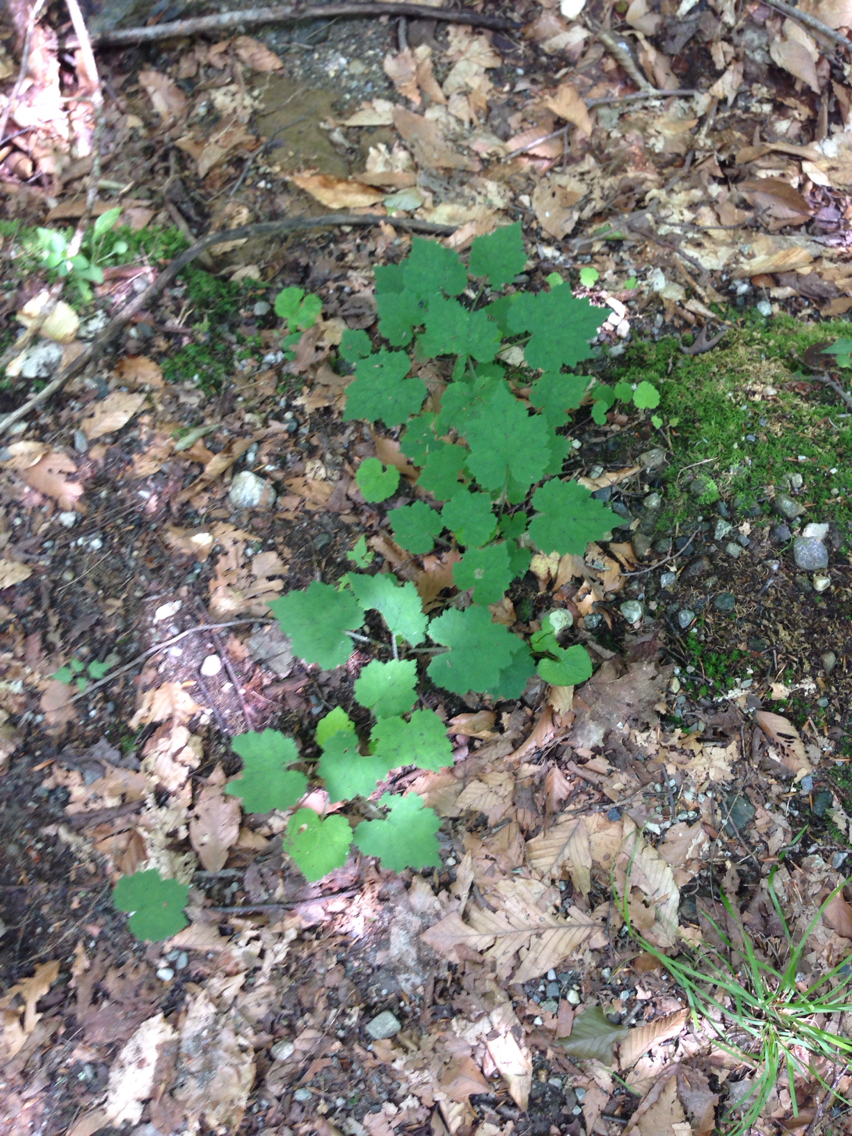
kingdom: Plantae
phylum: Tracheophyta
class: Magnoliopsida
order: Saxifragales
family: Saxifragaceae
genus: Tiarella
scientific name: Tiarella stolonifera
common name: Stoloniferous foamflower
